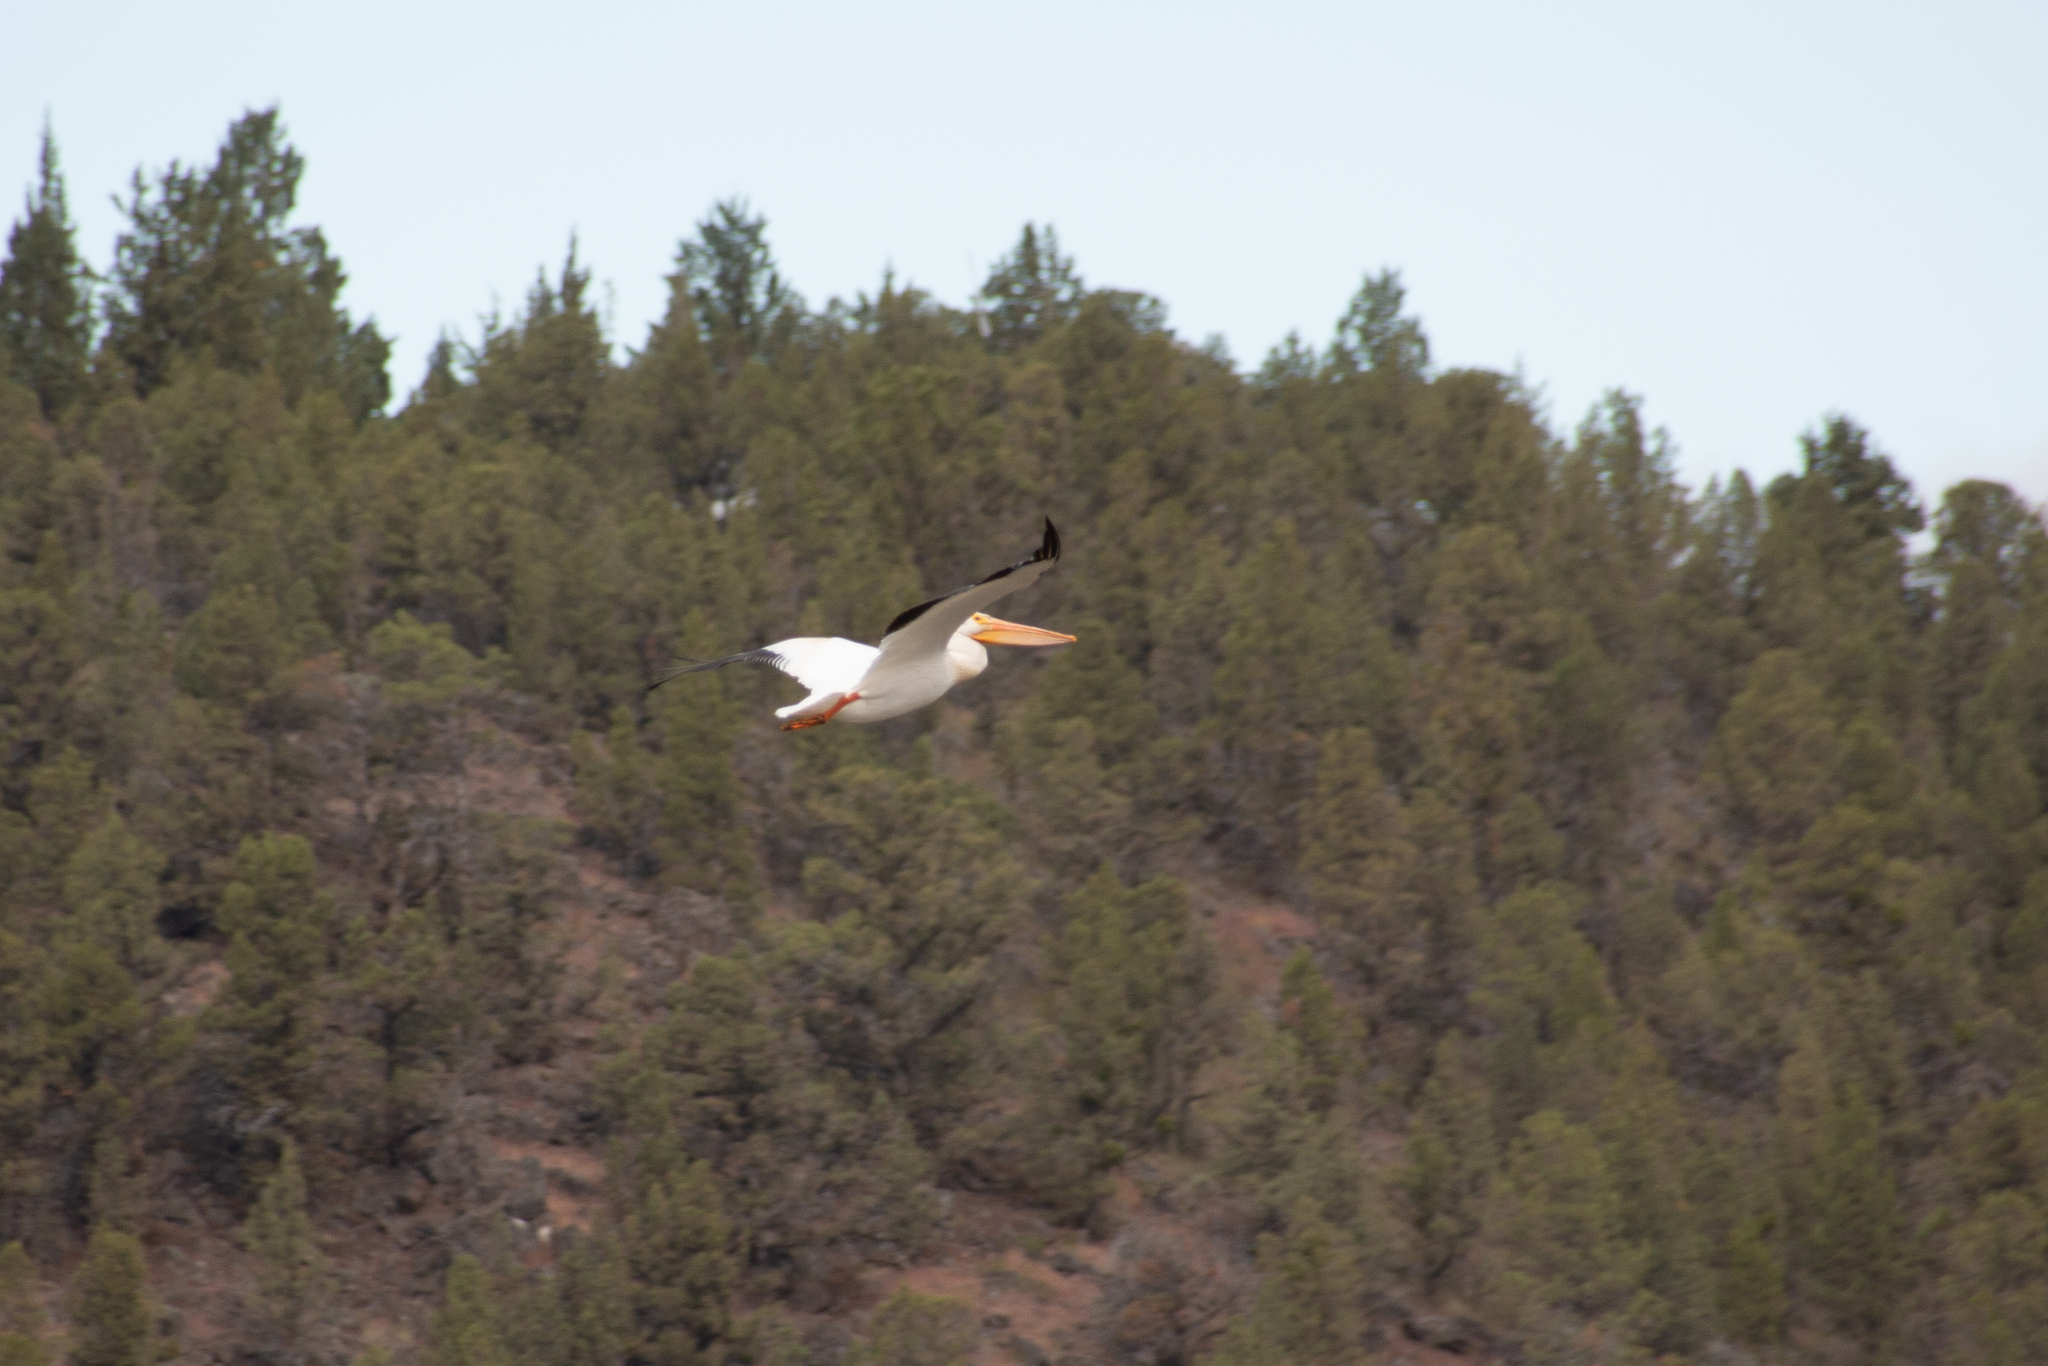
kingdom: Animalia
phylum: Chordata
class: Aves
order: Pelecaniformes
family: Pelecanidae
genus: Pelecanus
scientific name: Pelecanus erythrorhynchos
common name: American white pelican
